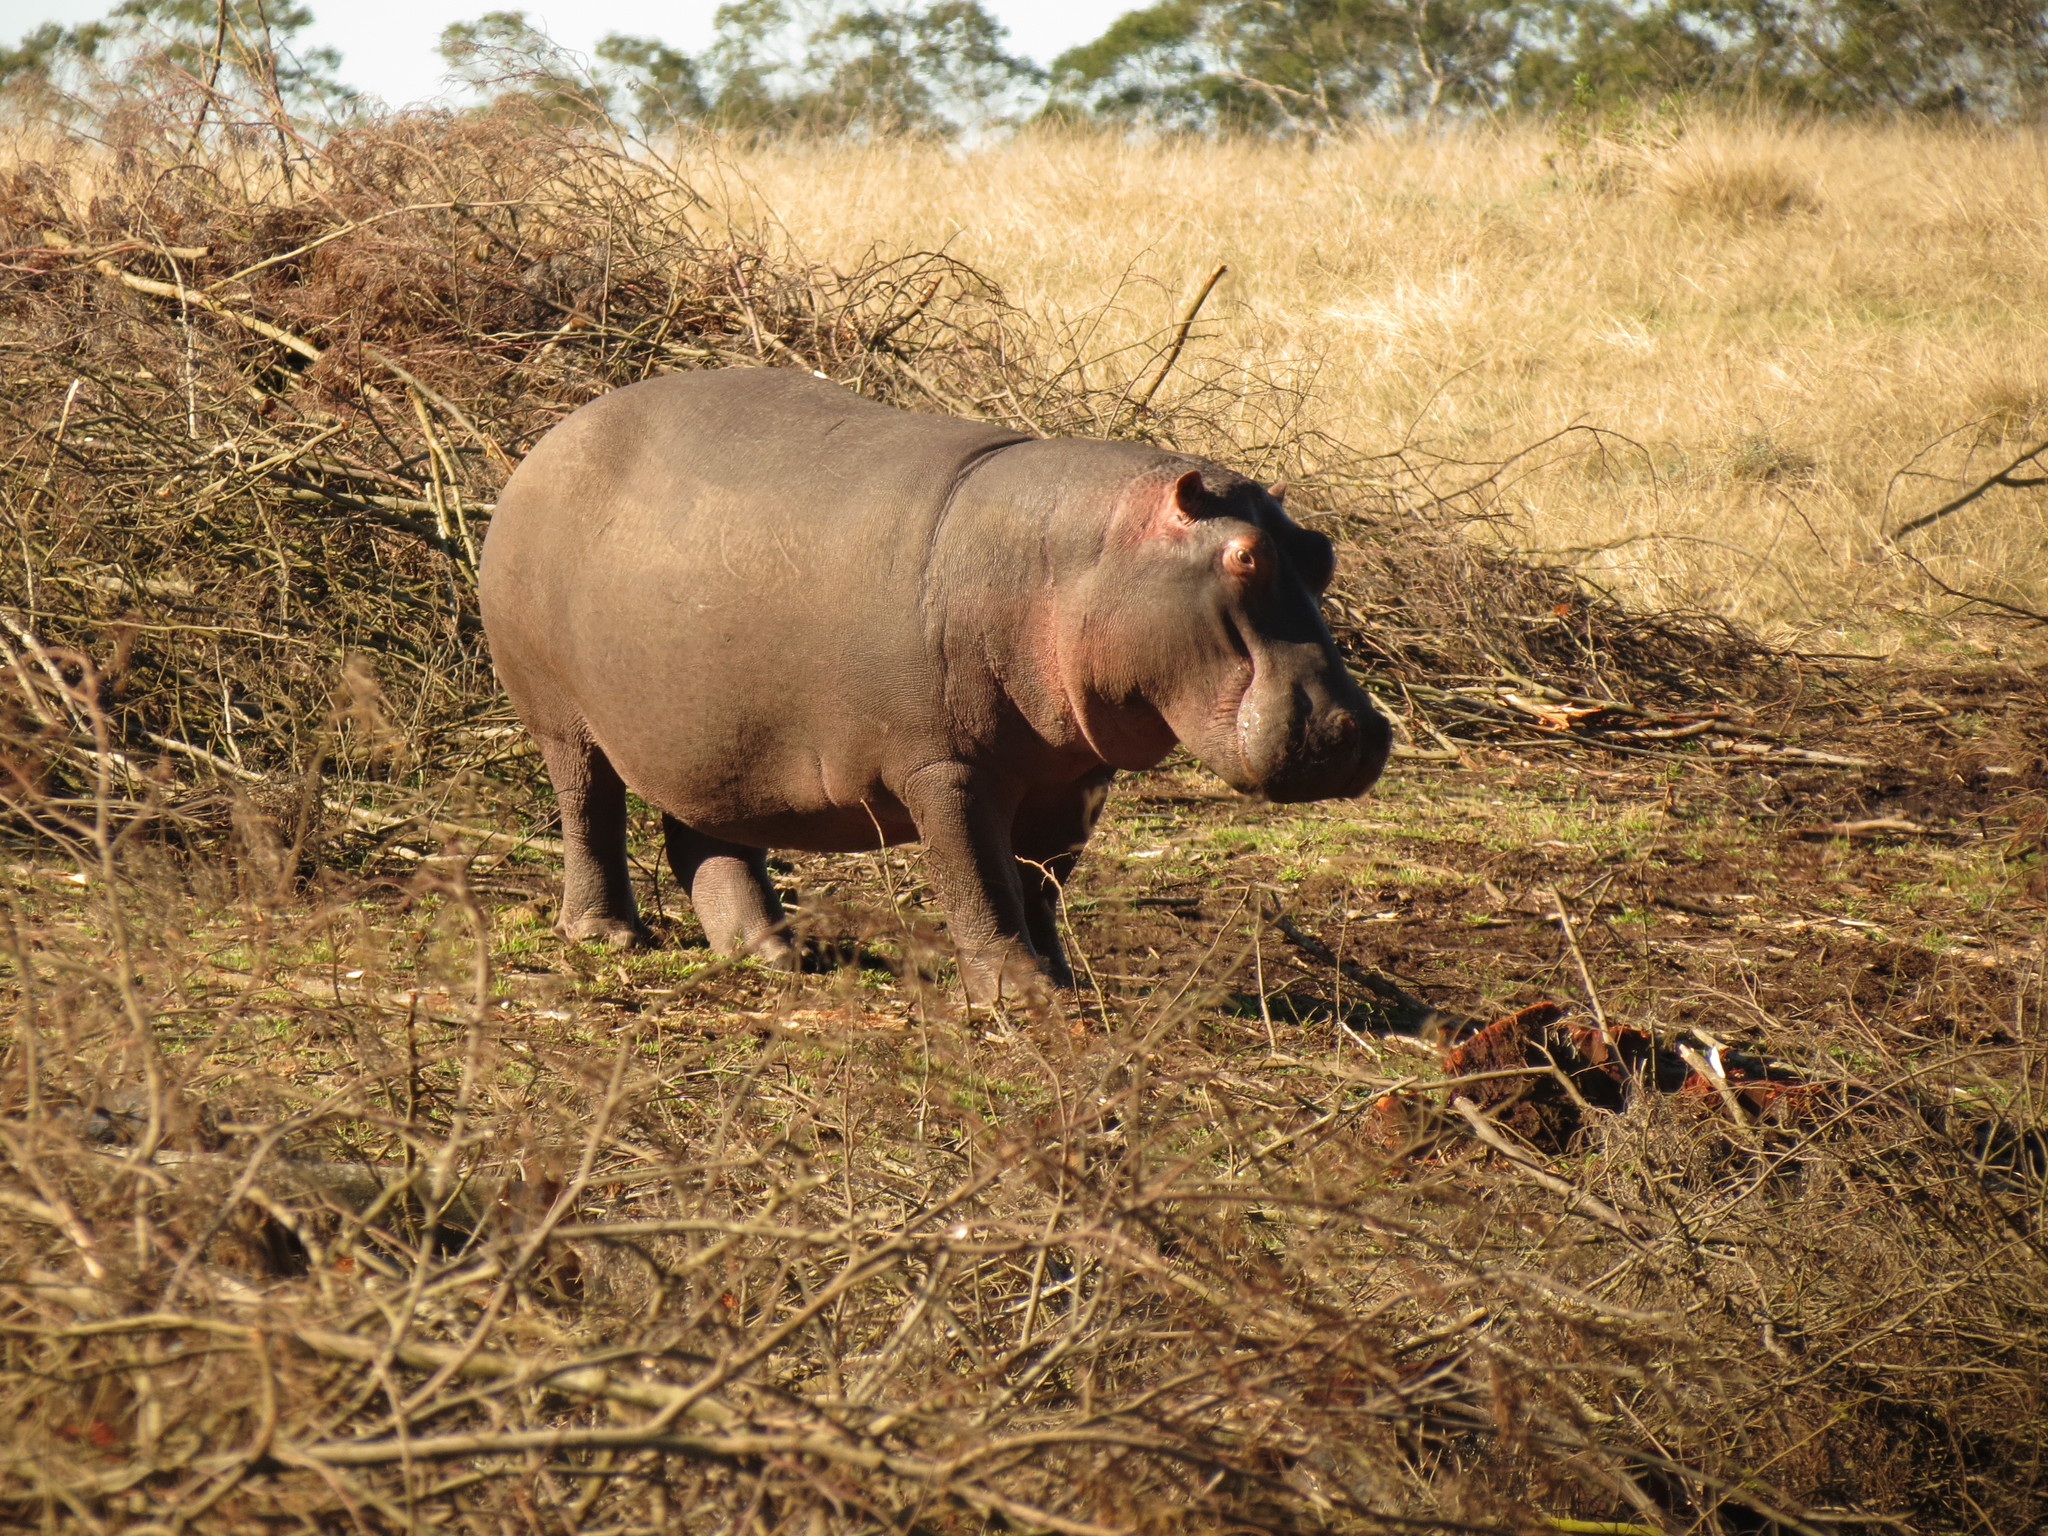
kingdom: Animalia
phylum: Chordata
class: Mammalia
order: Artiodactyla
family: Hippopotamidae
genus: Hippopotamus
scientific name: Hippopotamus amphibius
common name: Common hippopotamus
